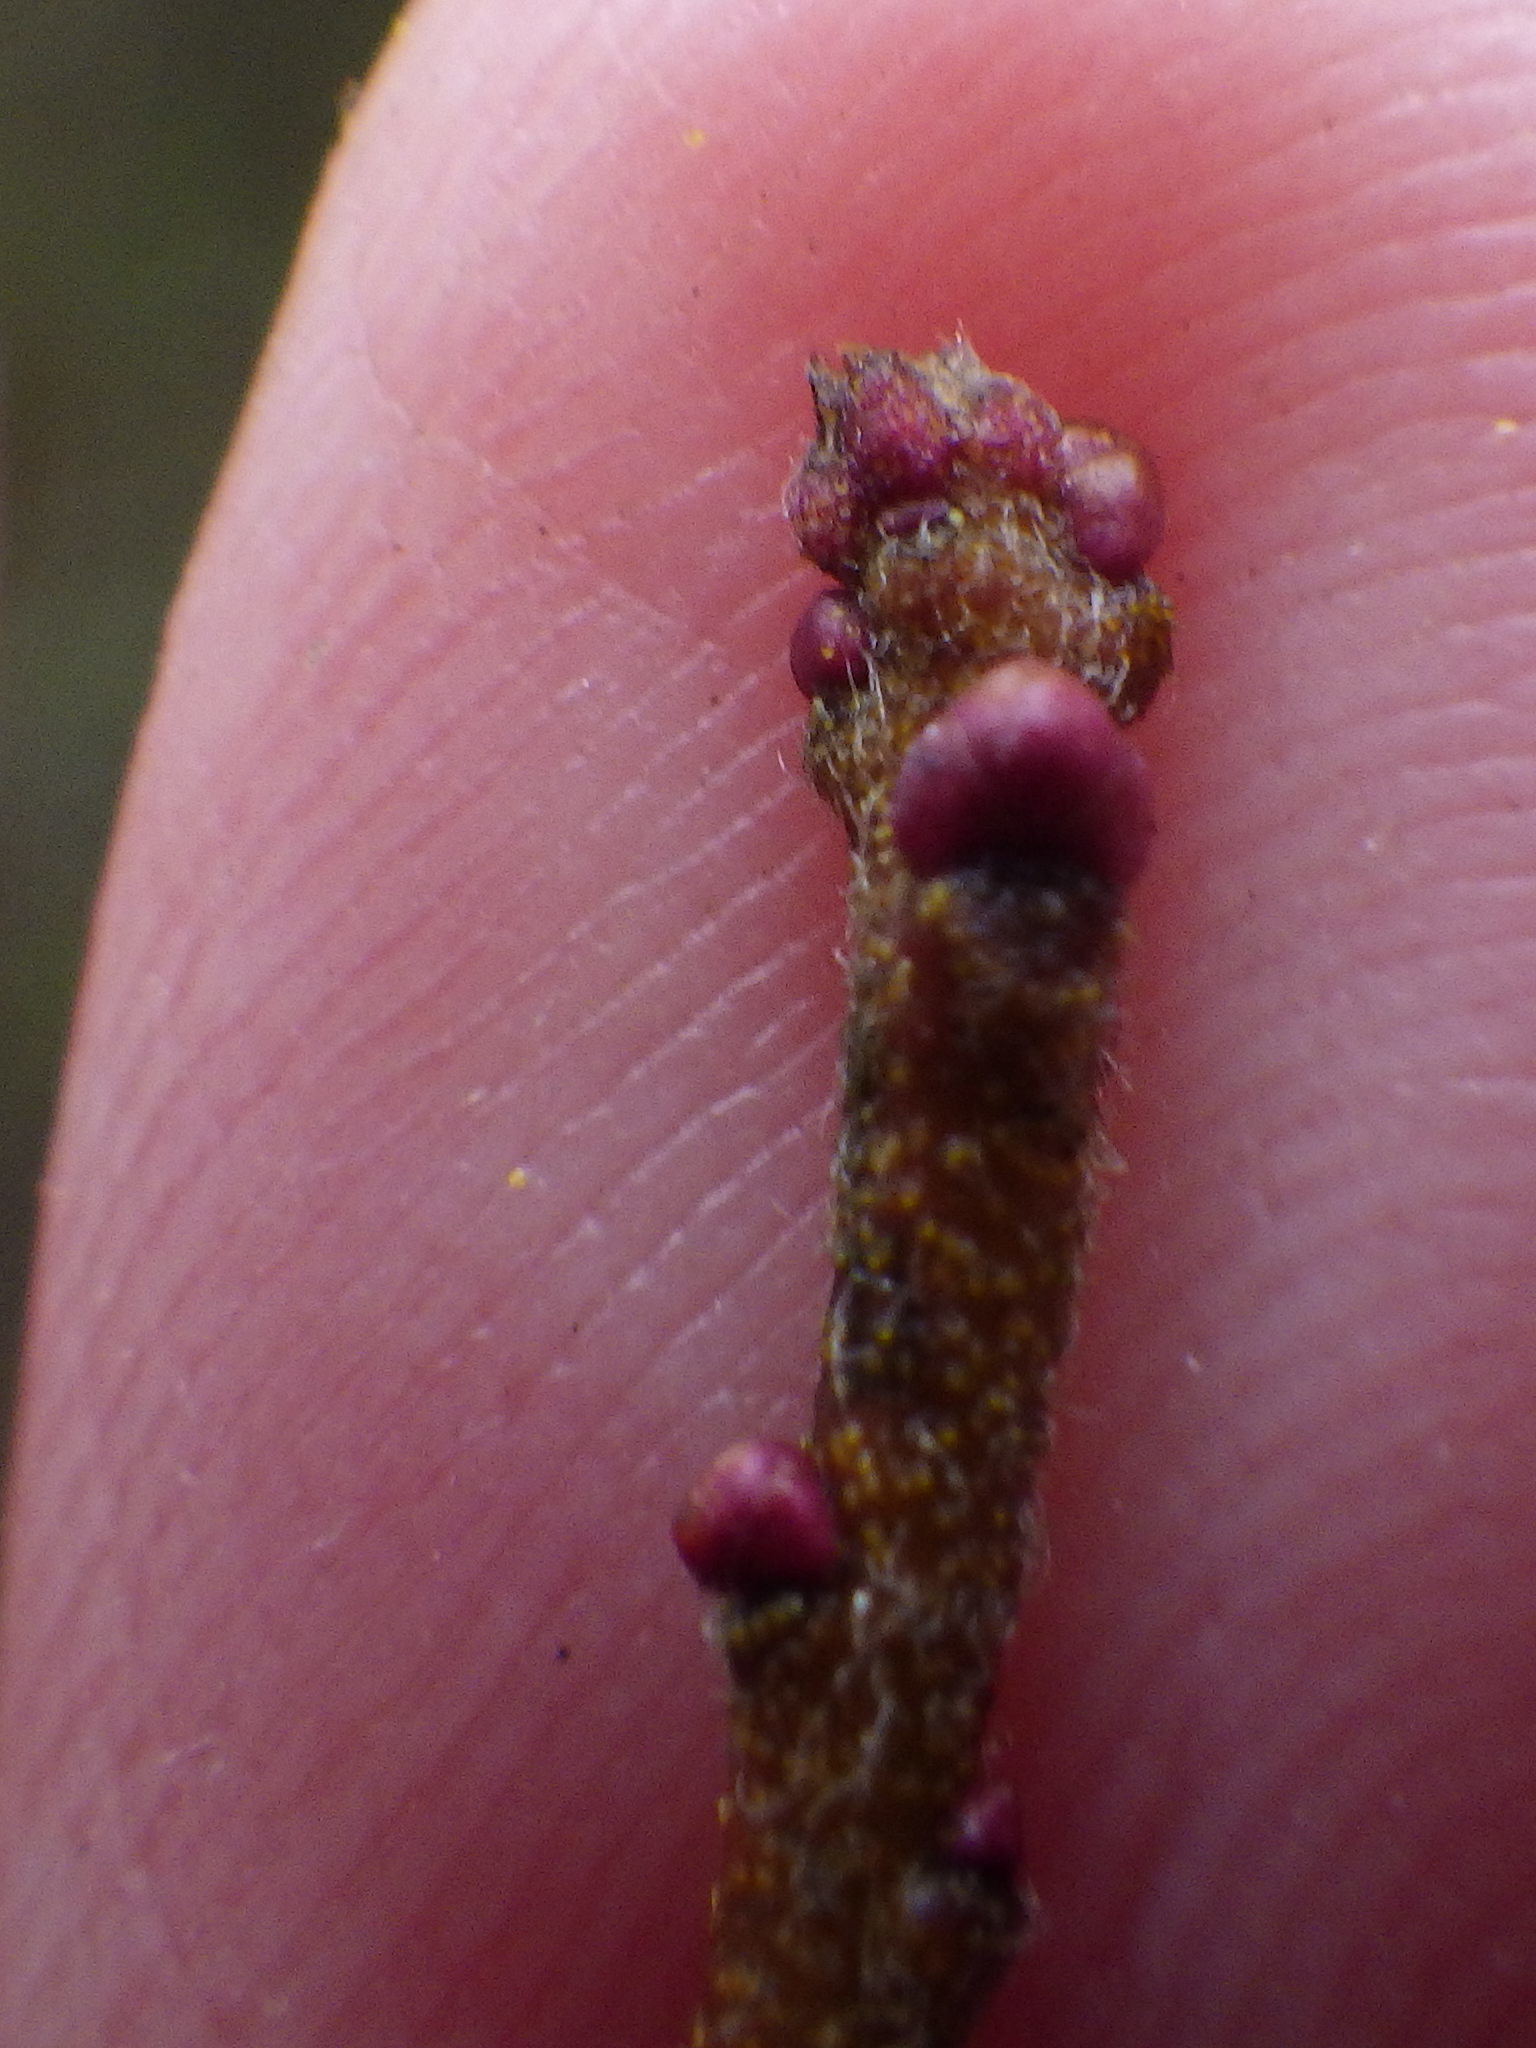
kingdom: Plantae
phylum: Tracheophyta
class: Magnoliopsida
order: Fagales
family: Myricaceae
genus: Morella
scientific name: Morella pensylvanica
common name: Northern bayberry
